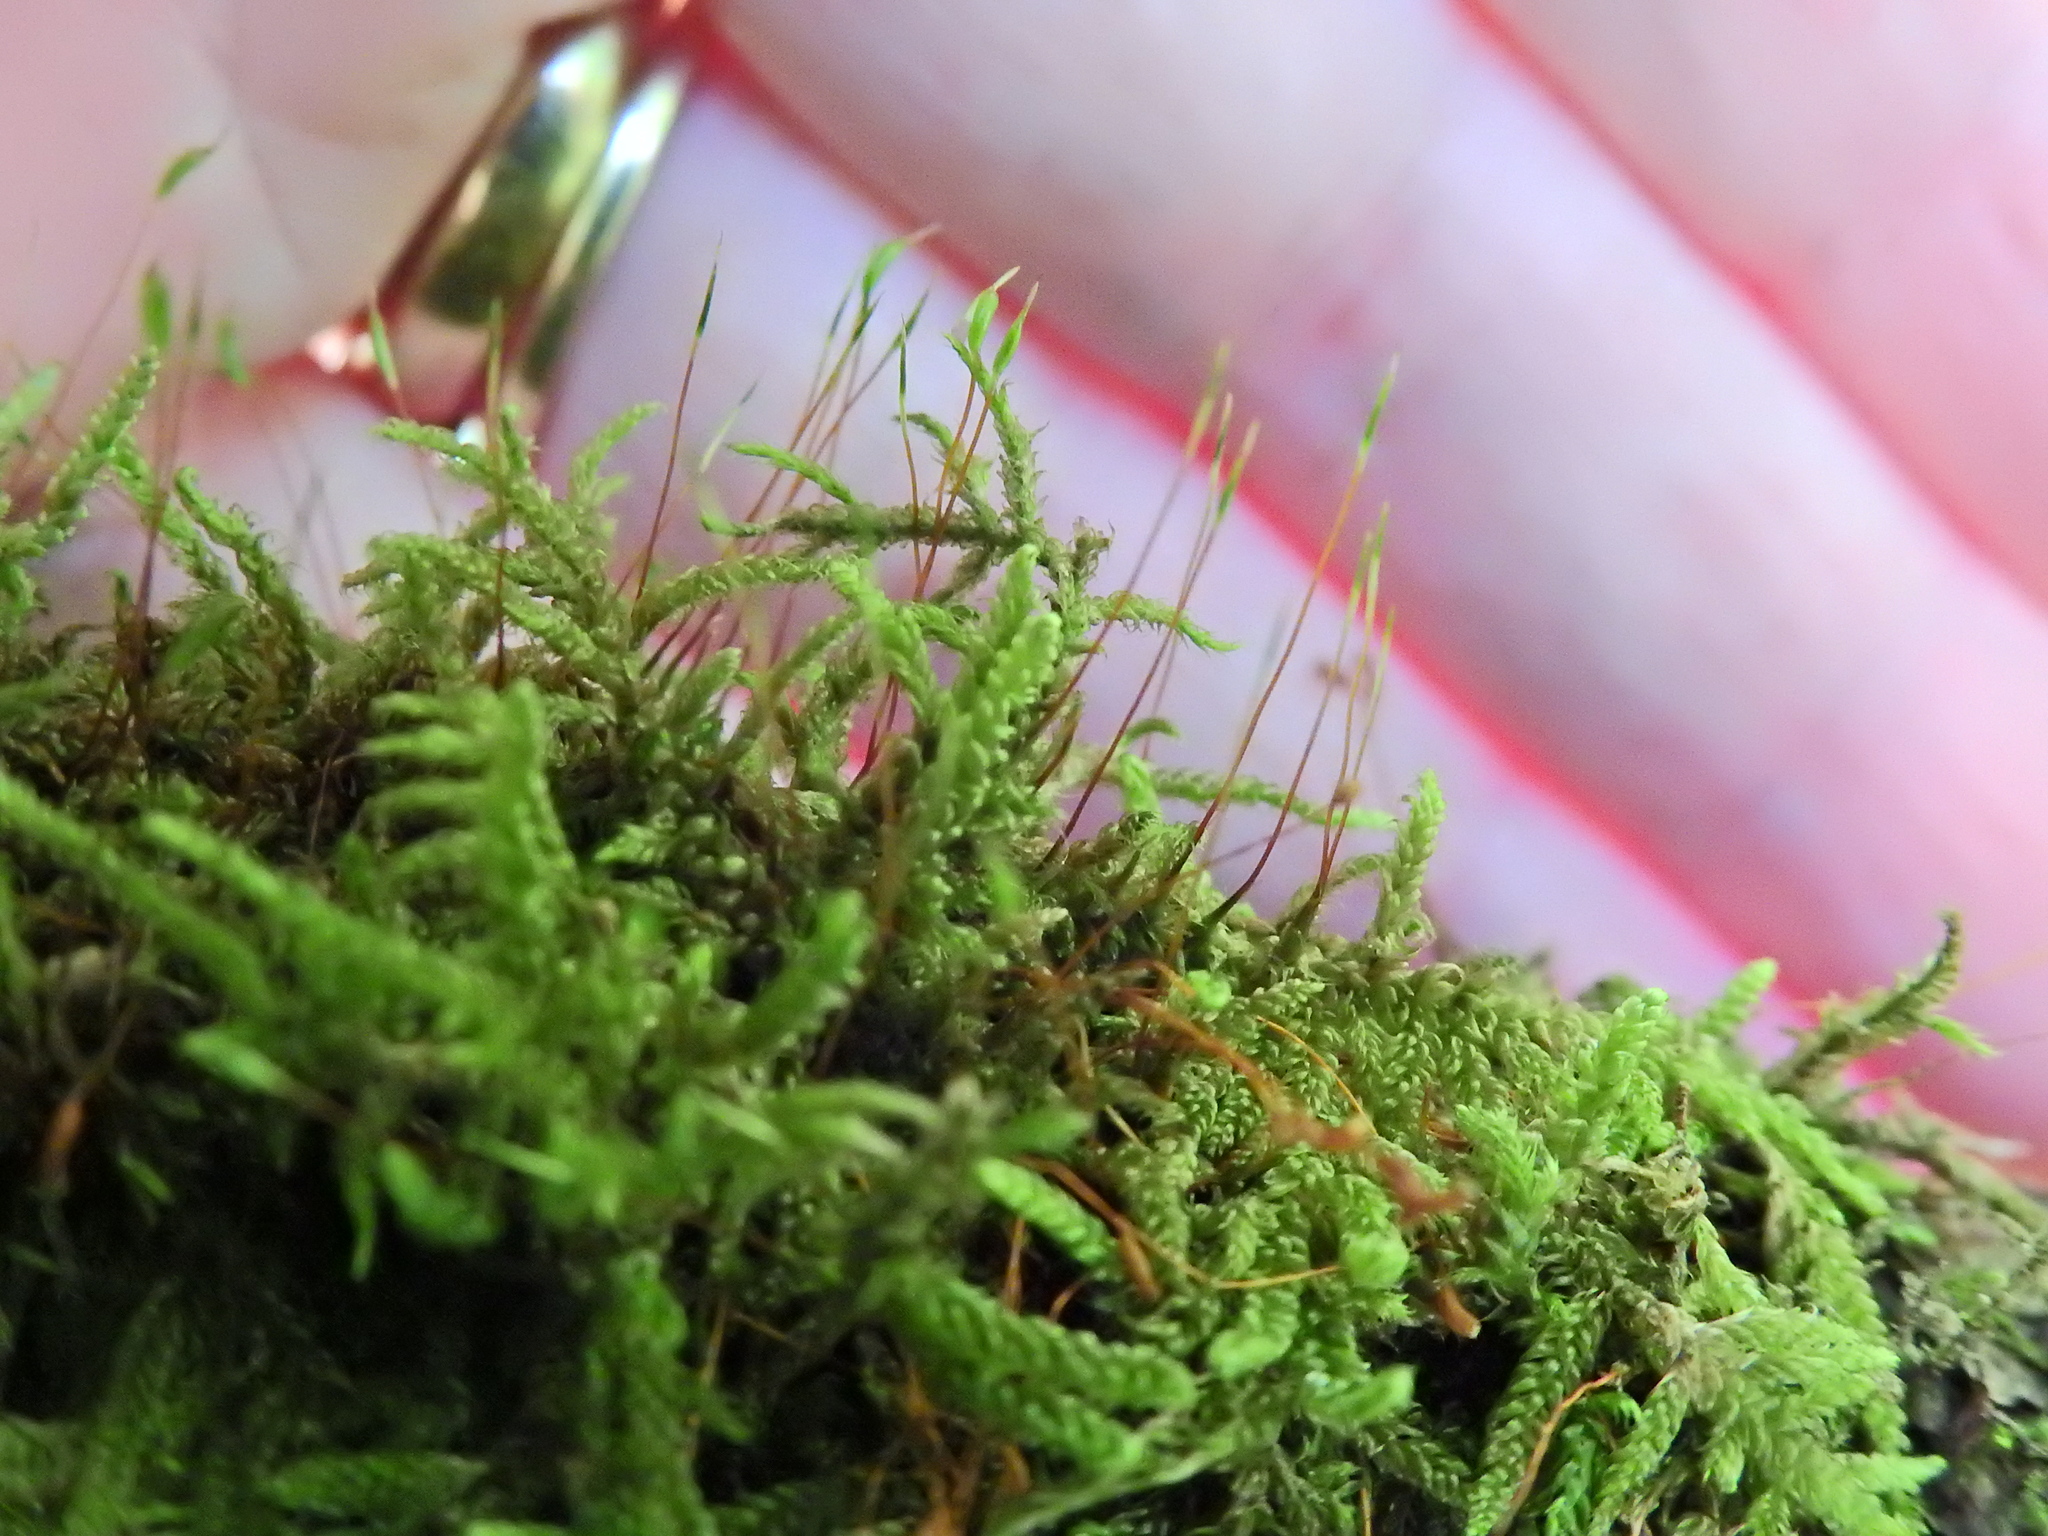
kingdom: Plantae
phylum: Bryophyta
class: Bryopsida
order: Hypnales
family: Hypnaceae
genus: Hypnum
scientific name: Hypnum cupressiforme
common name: Cypress-leaved plait-moss
